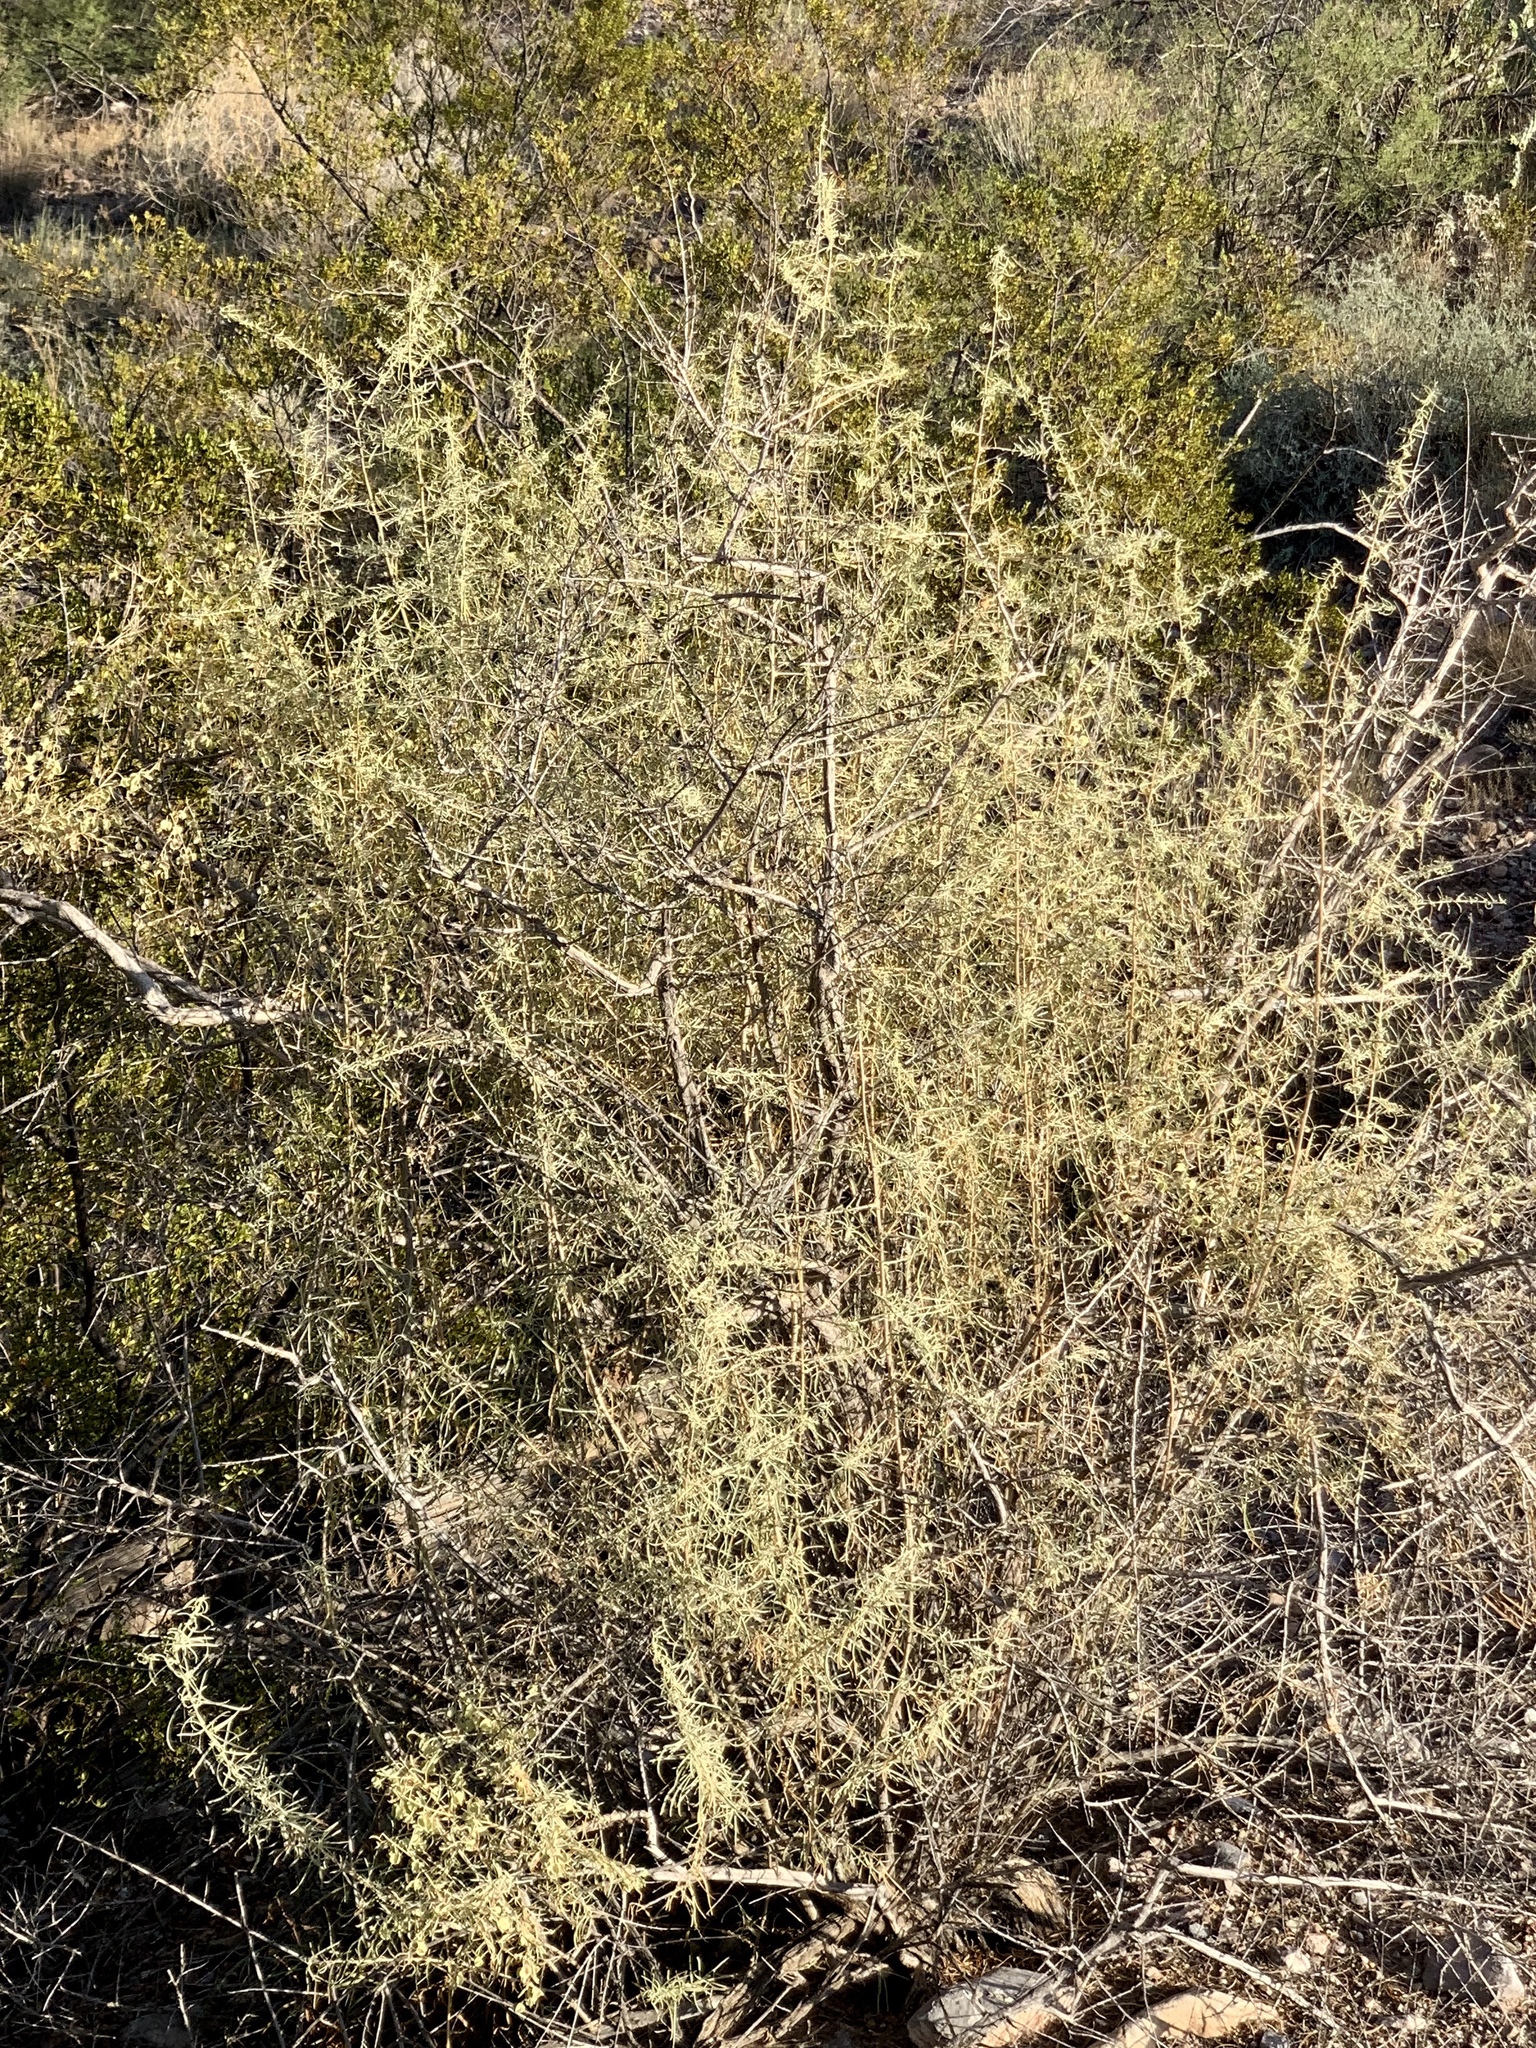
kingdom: Plantae
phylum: Tracheophyta
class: Magnoliopsida
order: Caryophyllales
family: Amaranthaceae
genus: Atriplex
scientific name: Atriplex polycarpa
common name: Desert saltbush
